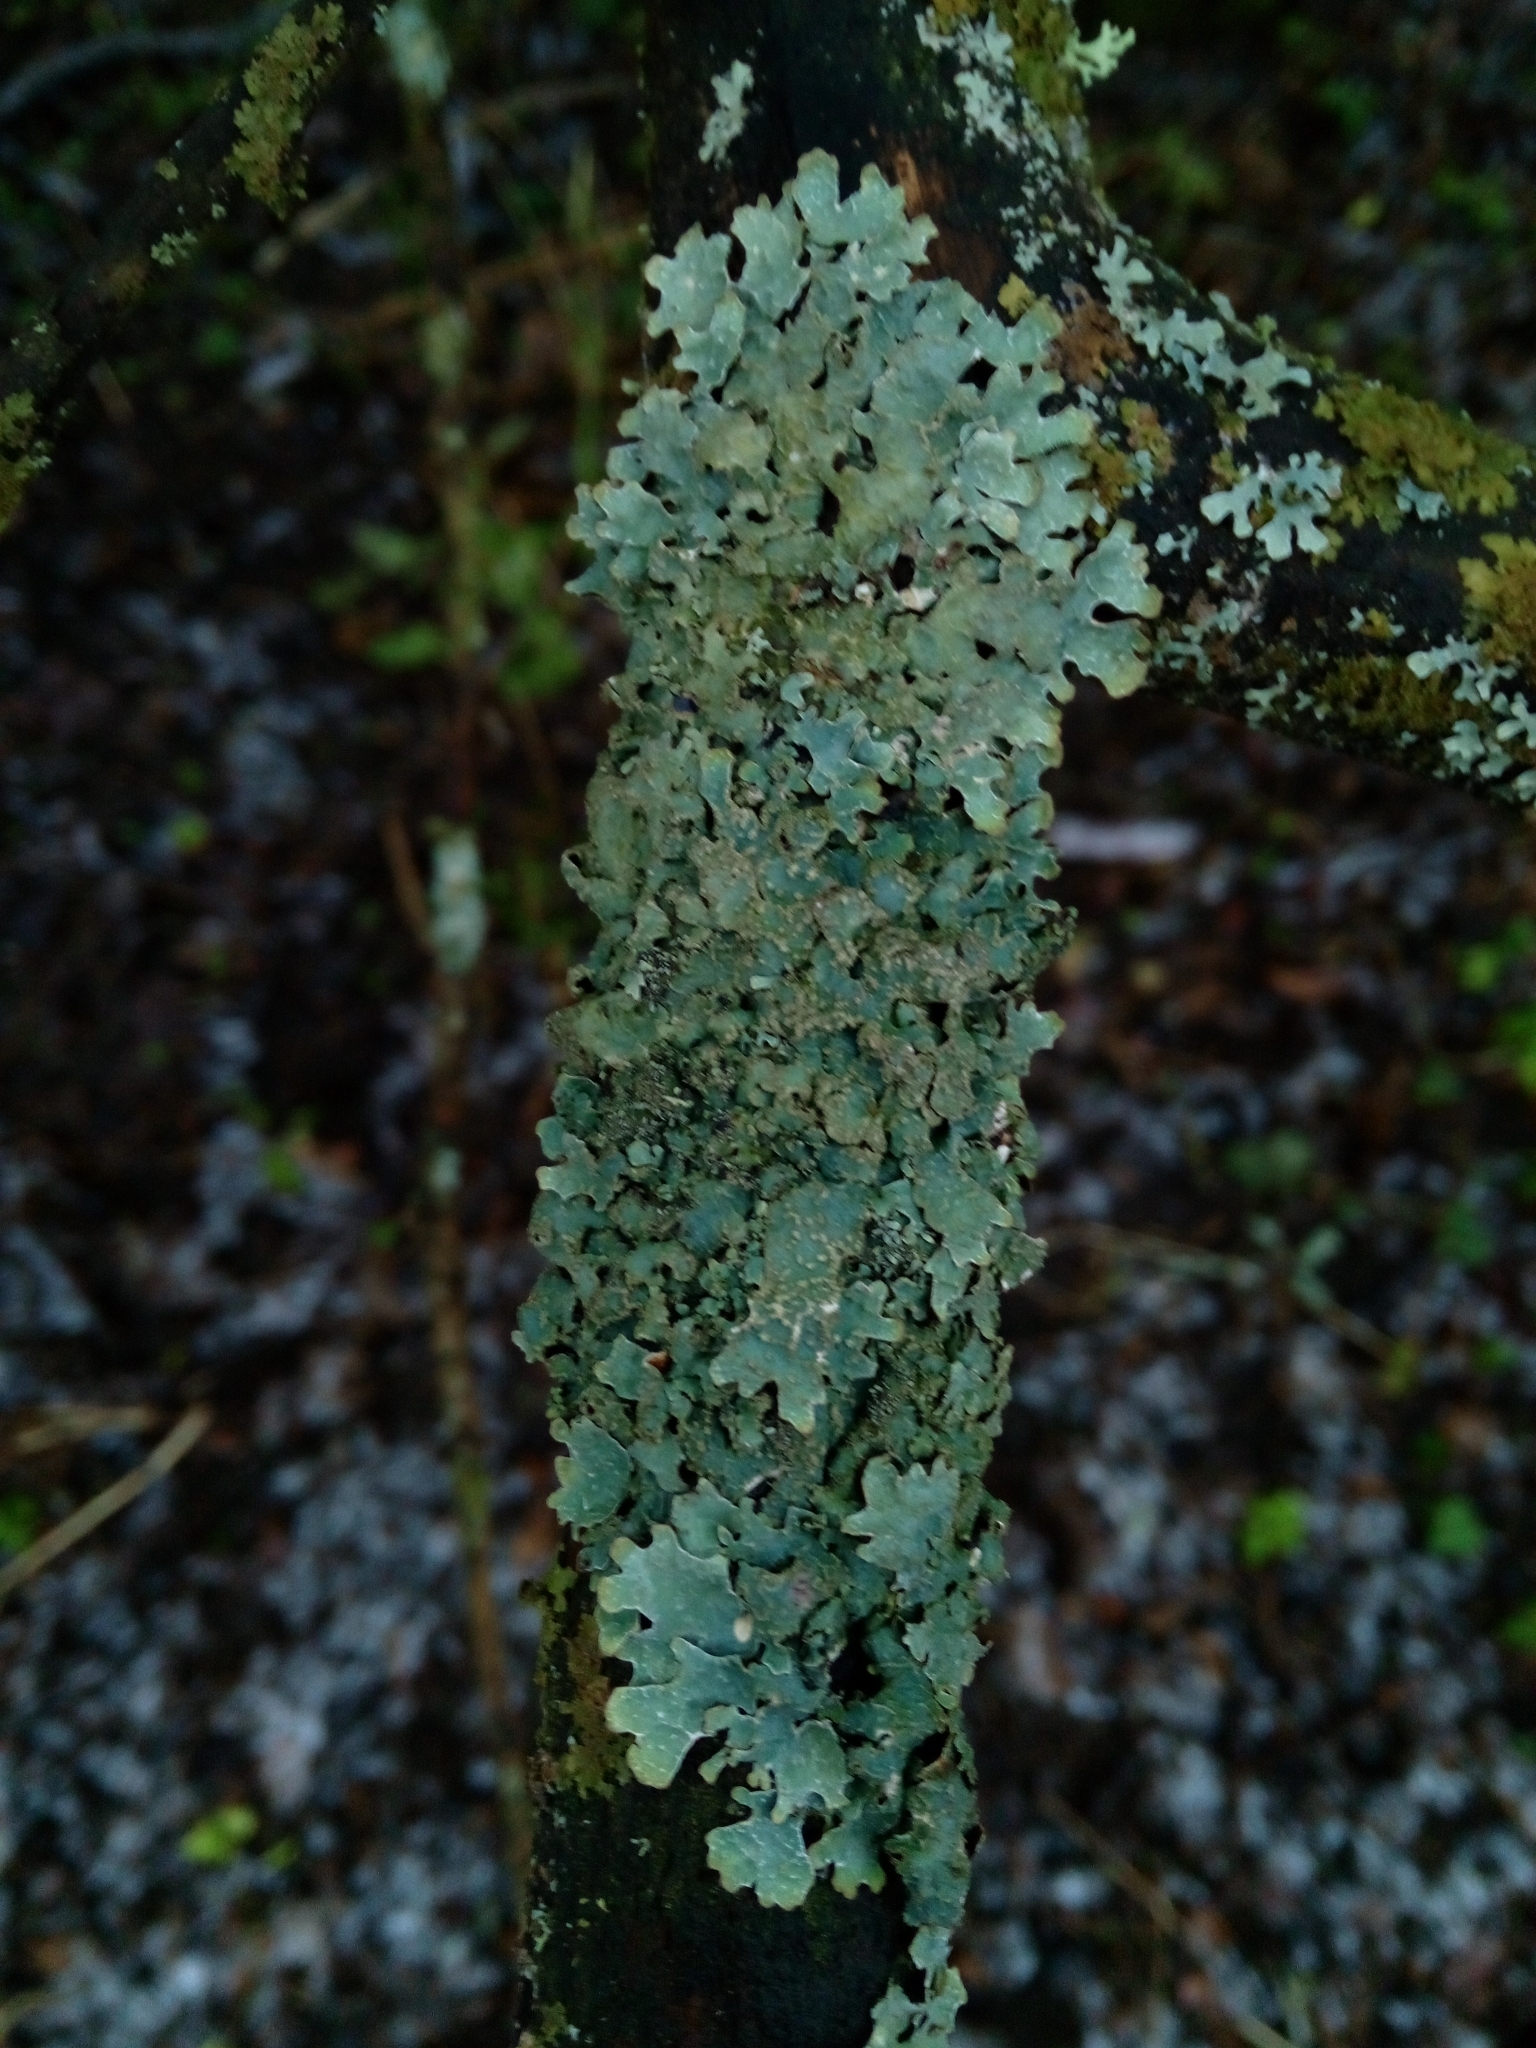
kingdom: Fungi
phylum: Ascomycota
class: Lecanoromycetes
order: Lecanorales
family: Parmeliaceae
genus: Parmelia
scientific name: Parmelia sulcata
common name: Netted shield lichen
